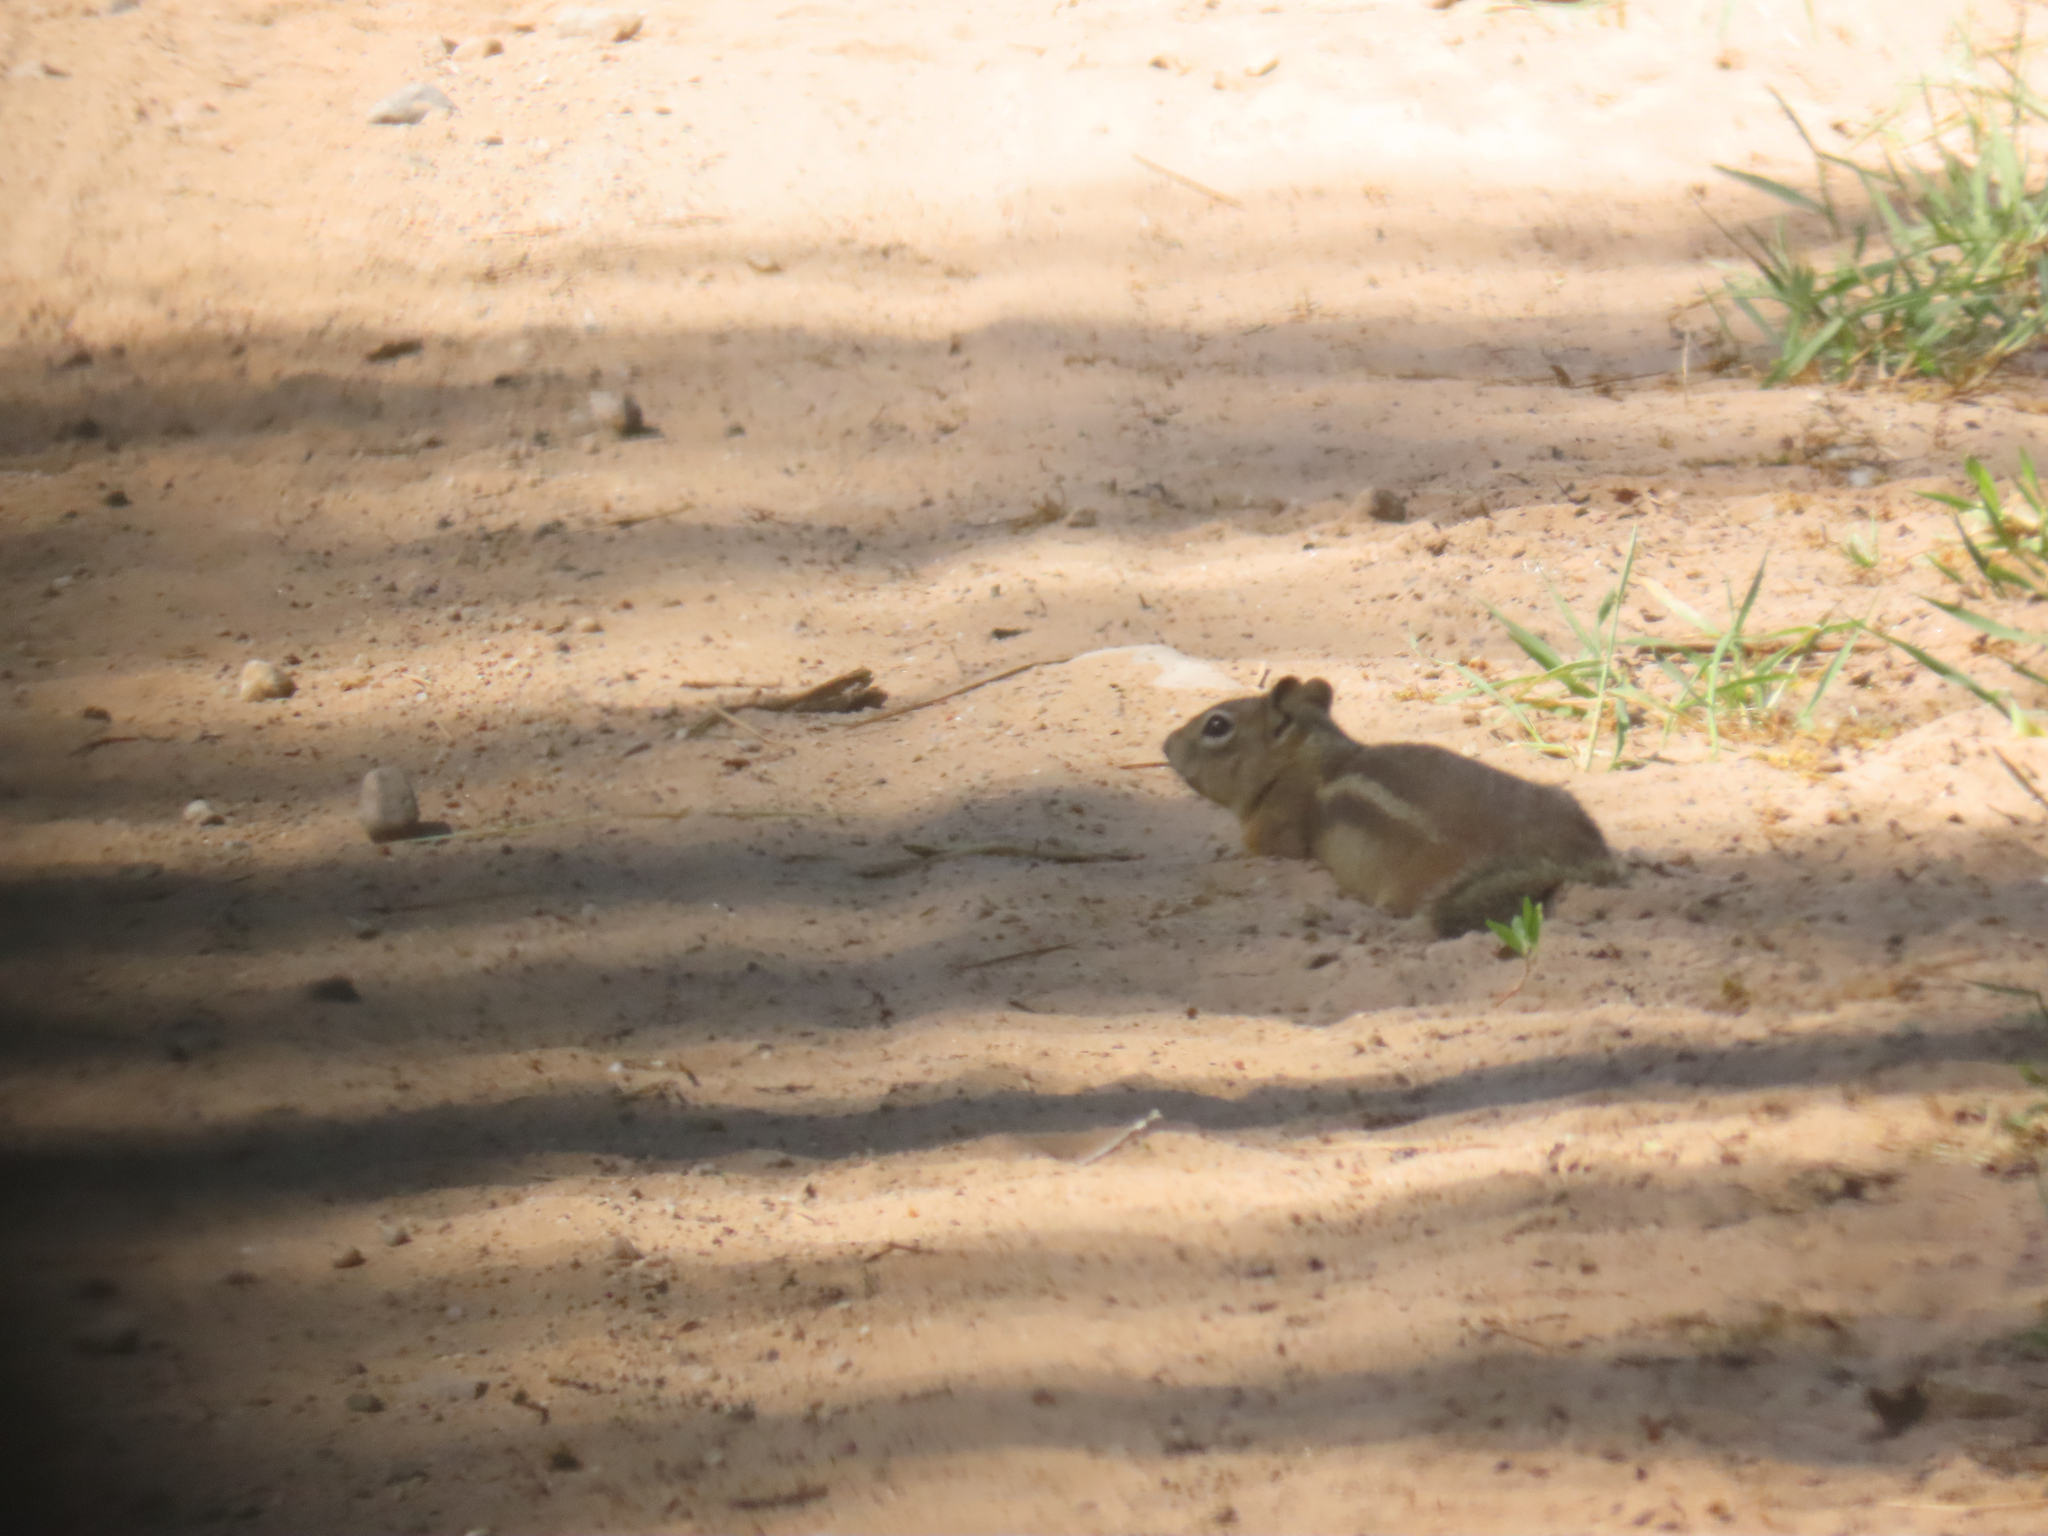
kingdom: Animalia
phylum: Chordata
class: Mammalia
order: Rodentia
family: Sciuridae
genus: Callospermophilus
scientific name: Callospermophilus lateralis
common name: Golden-mantled ground squirrel
